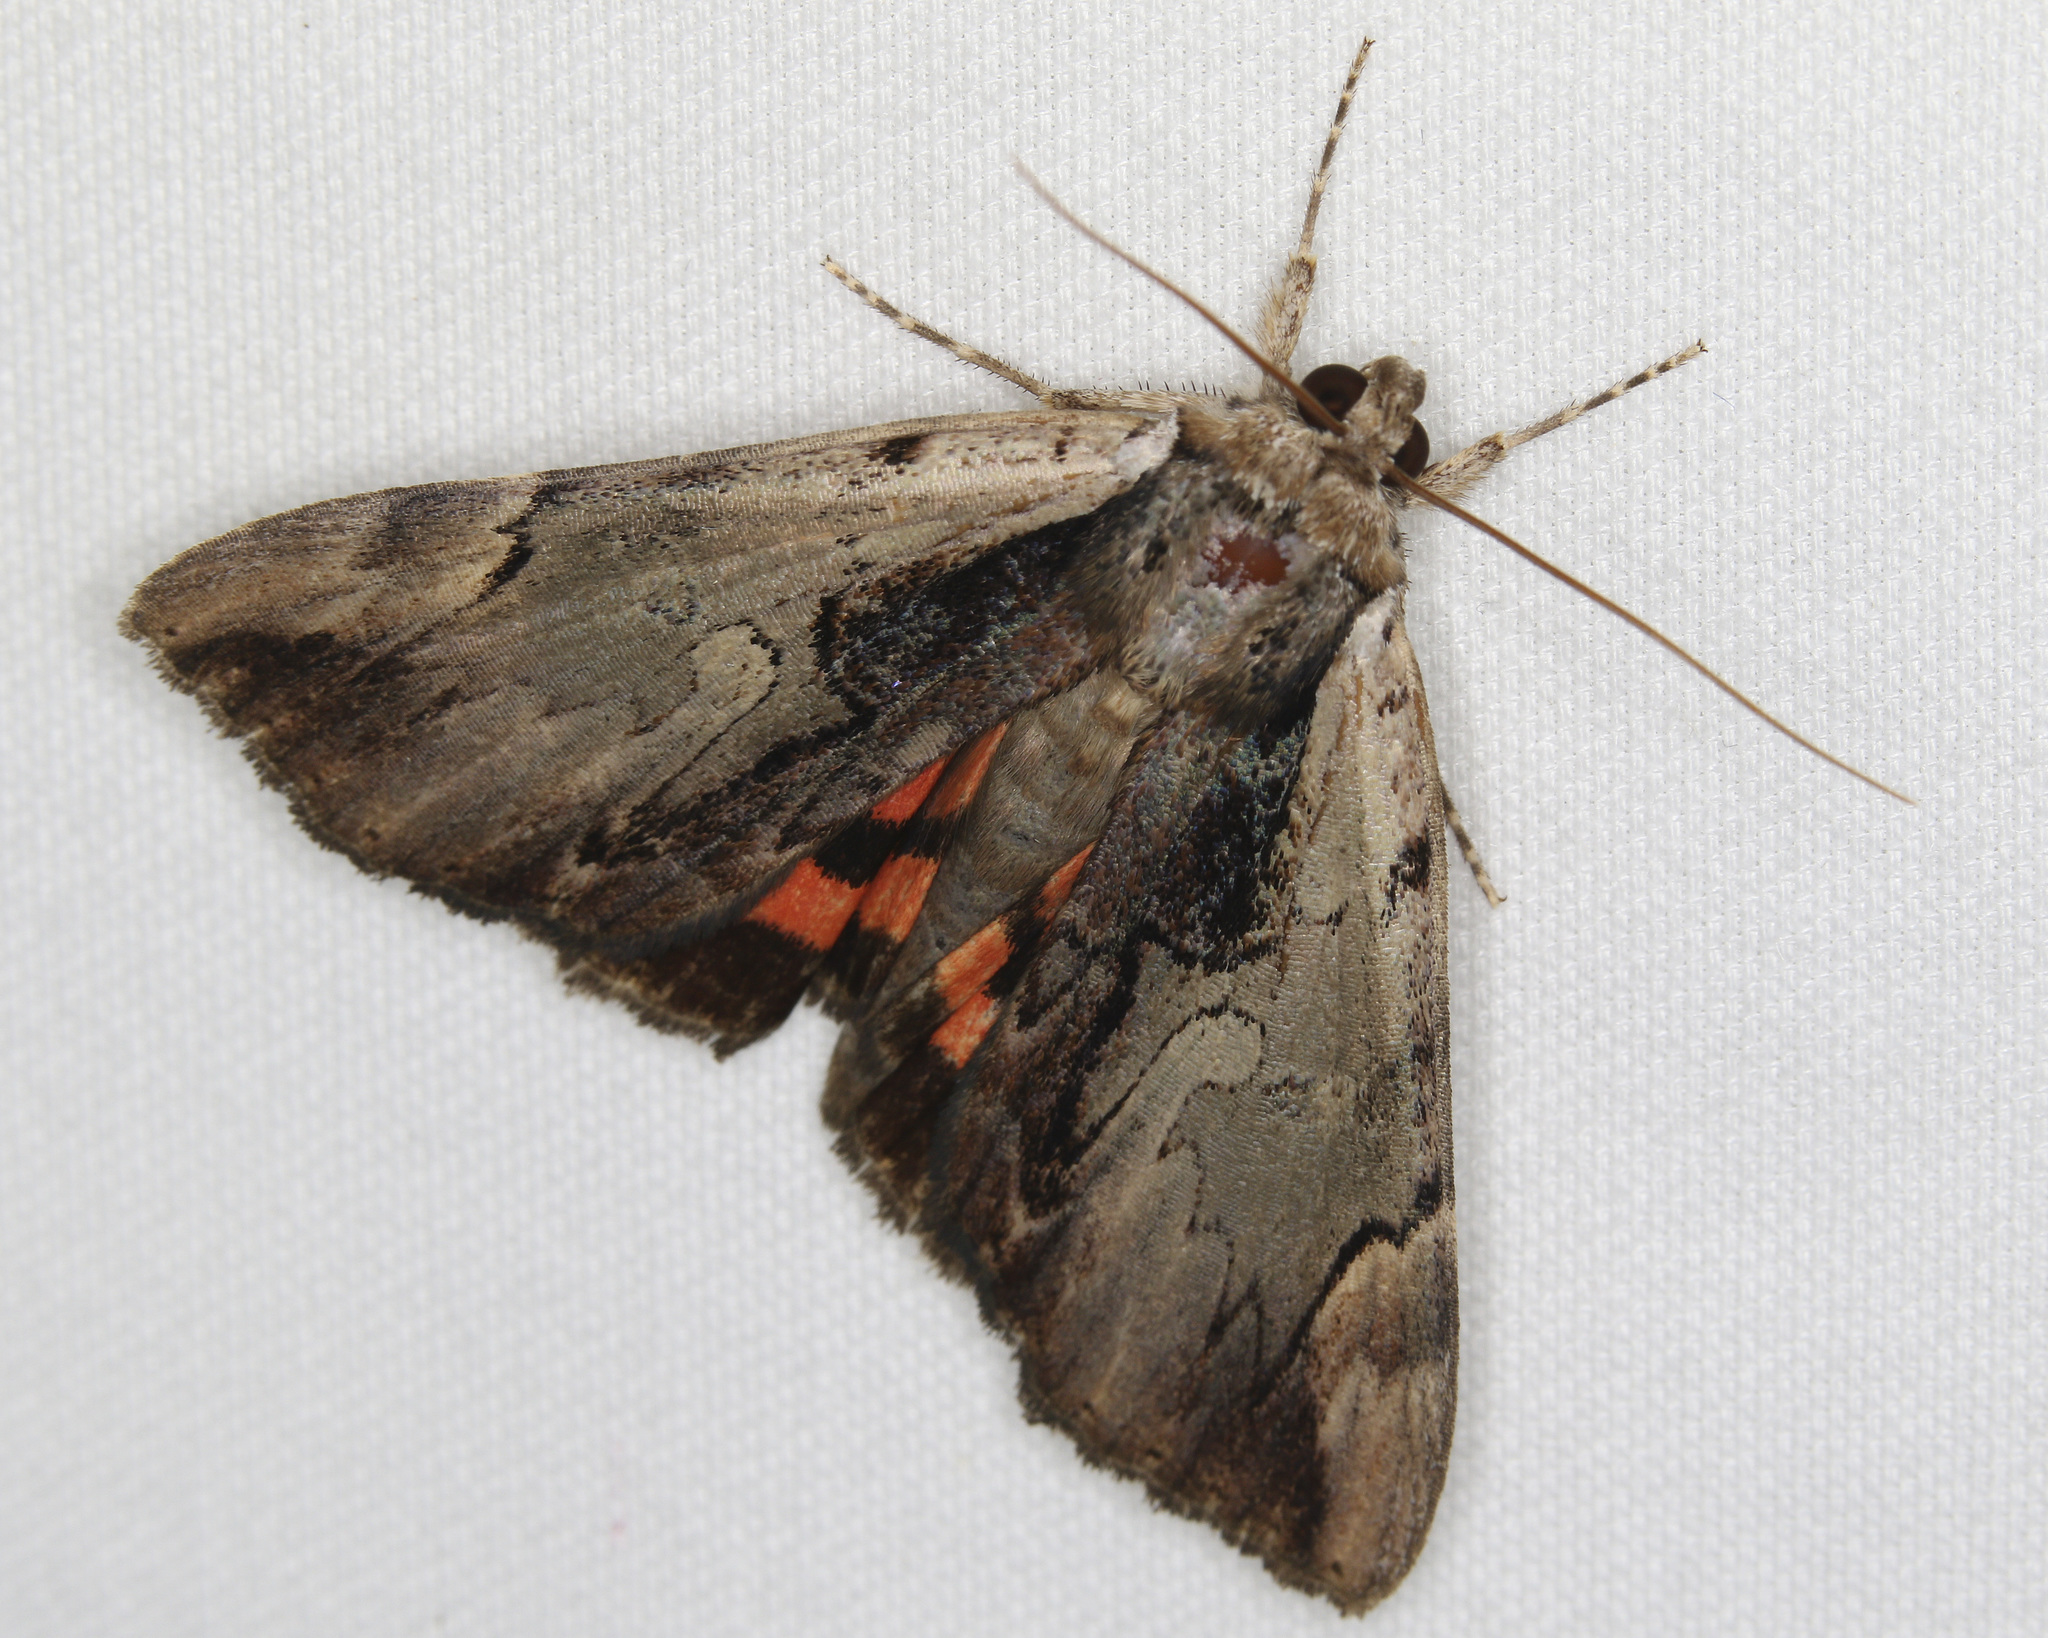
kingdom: Animalia
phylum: Arthropoda
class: Insecta
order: Lepidoptera
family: Erebidae
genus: Catocala
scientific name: Catocala ultronia
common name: Ultronia underwing
